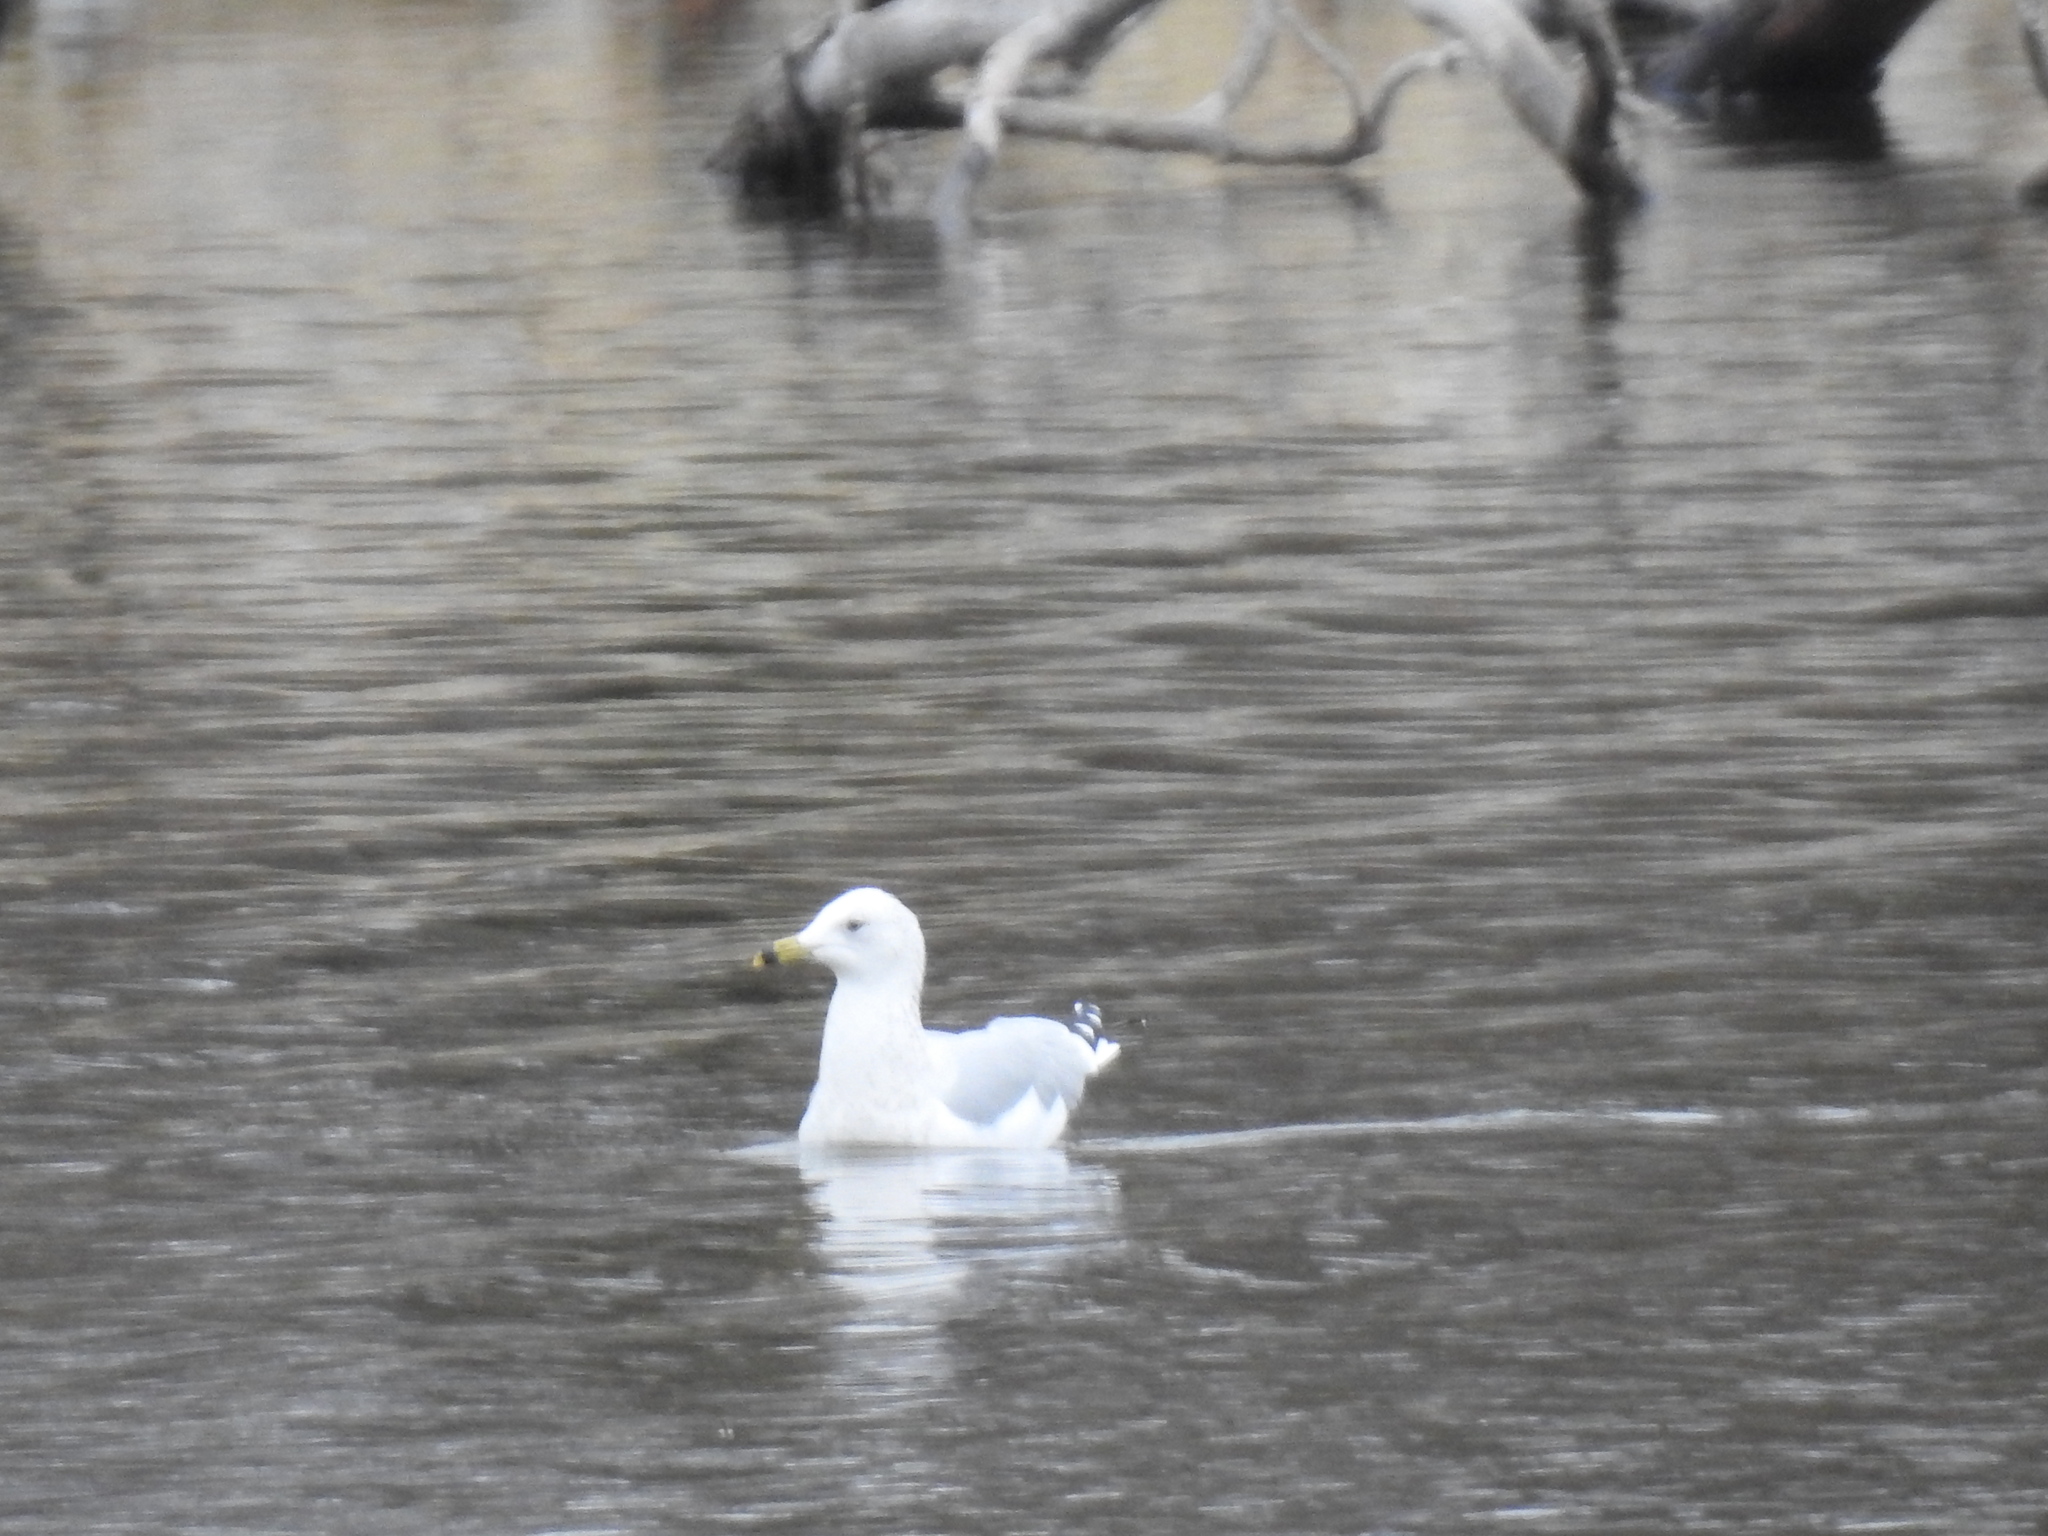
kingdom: Animalia
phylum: Chordata
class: Aves
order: Charadriiformes
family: Laridae
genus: Larus
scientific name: Larus delawarensis
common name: Ring-billed gull
